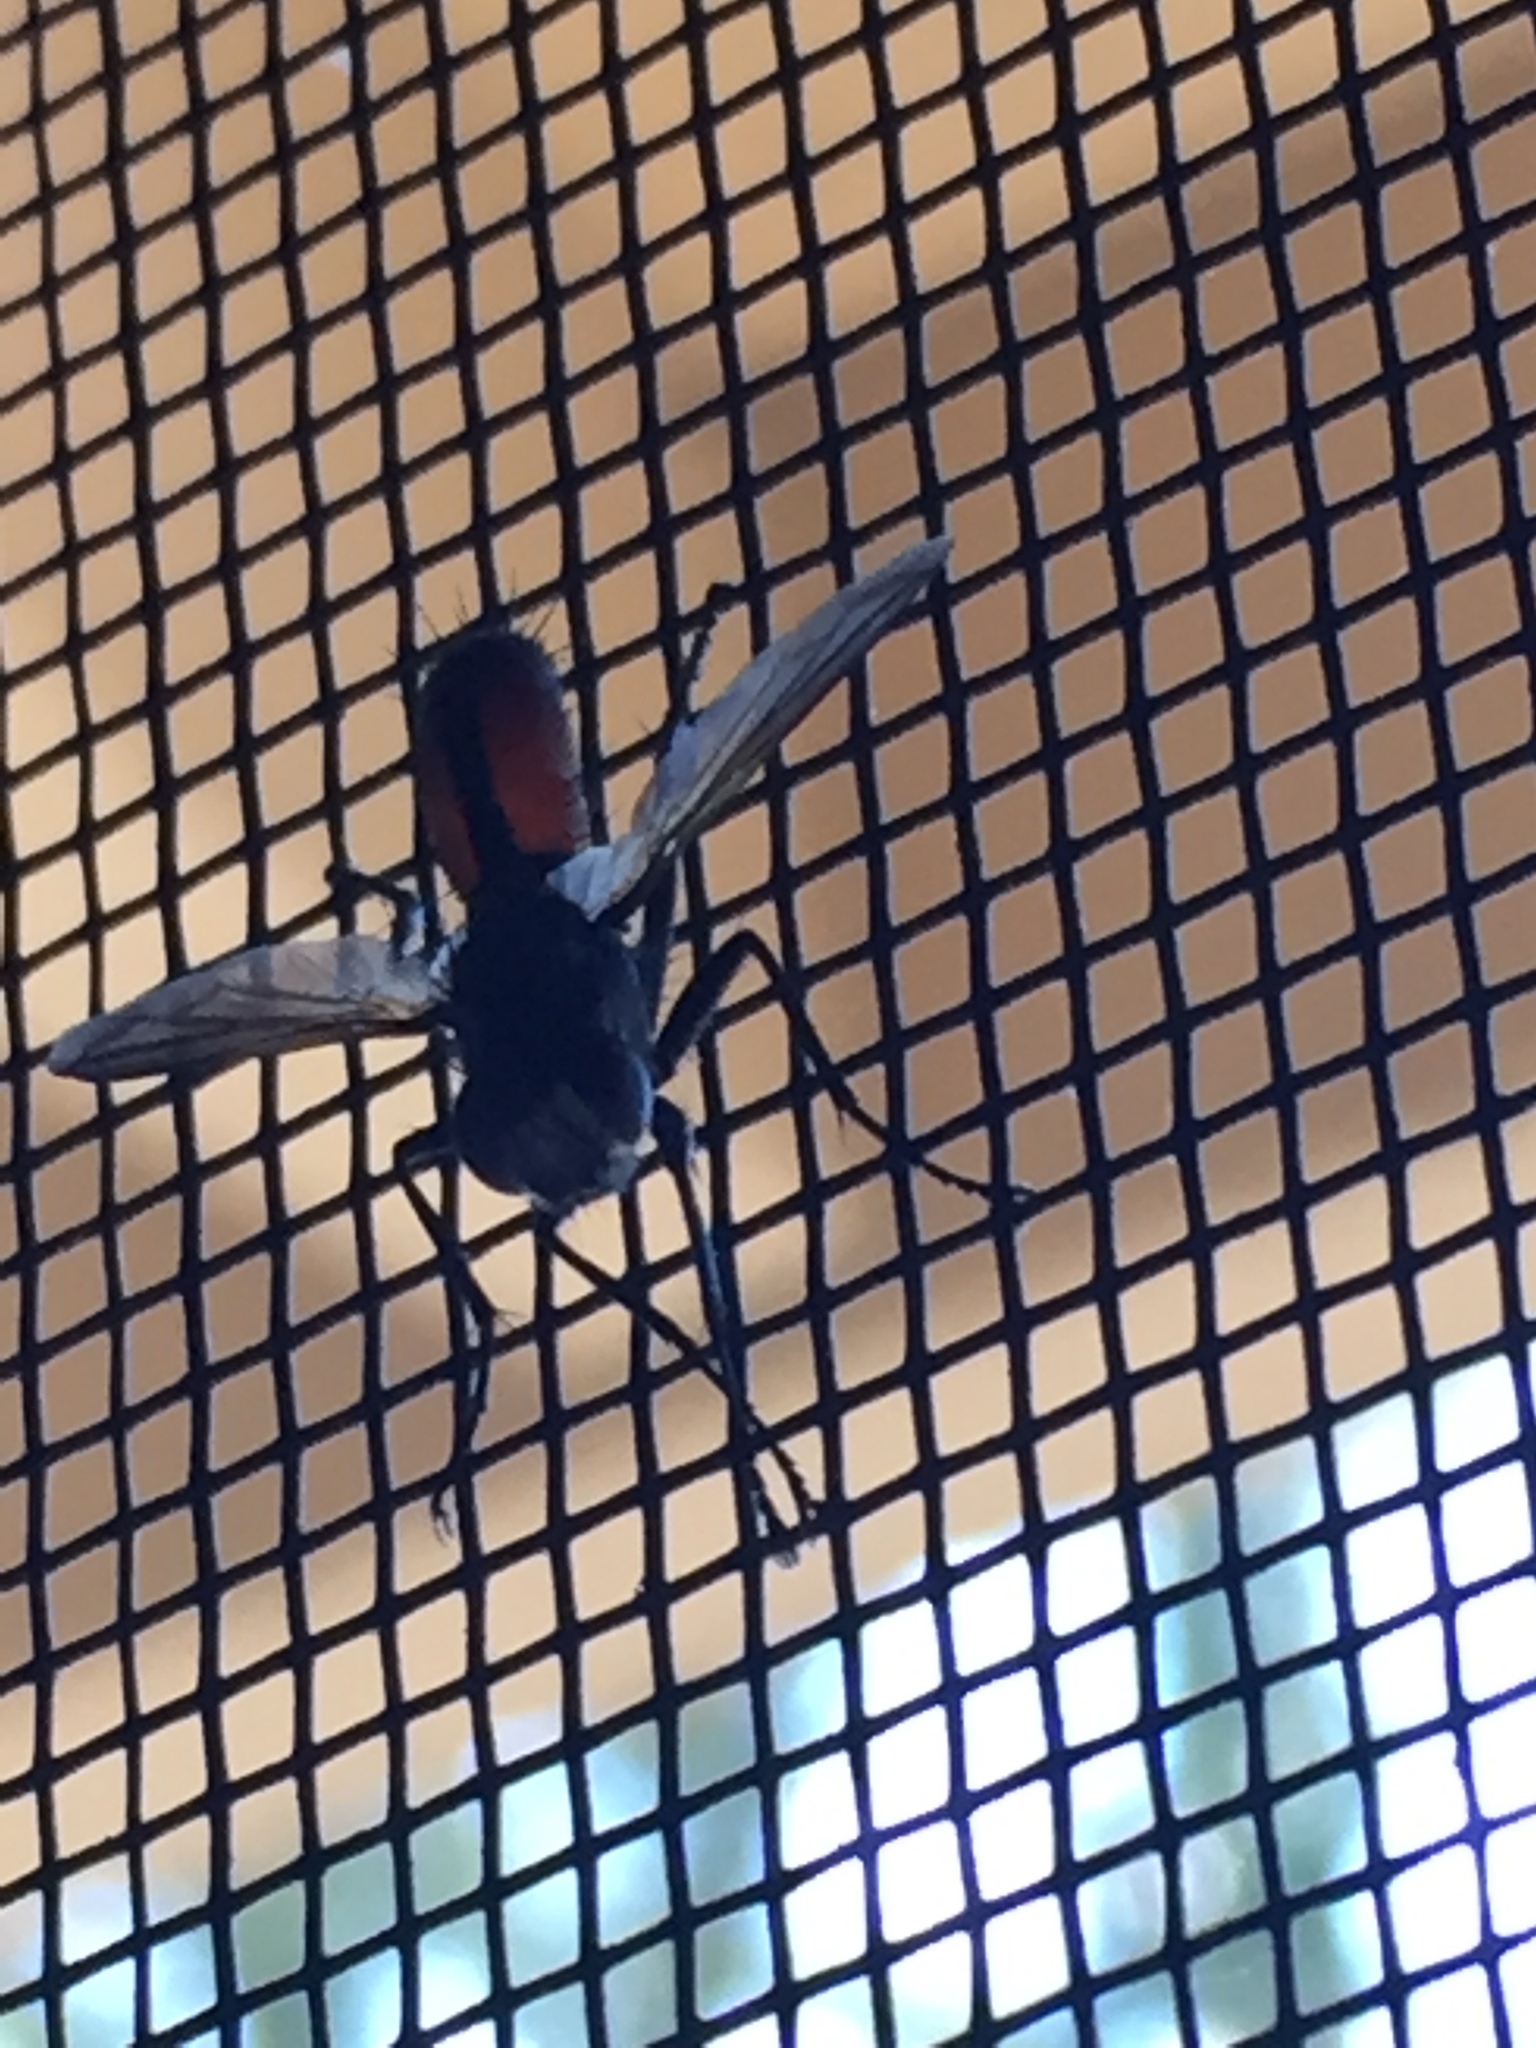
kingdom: Animalia
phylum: Arthropoda
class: Insecta
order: Diptera
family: Tachinidae
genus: Cylindromyia
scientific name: Cylindromyia
